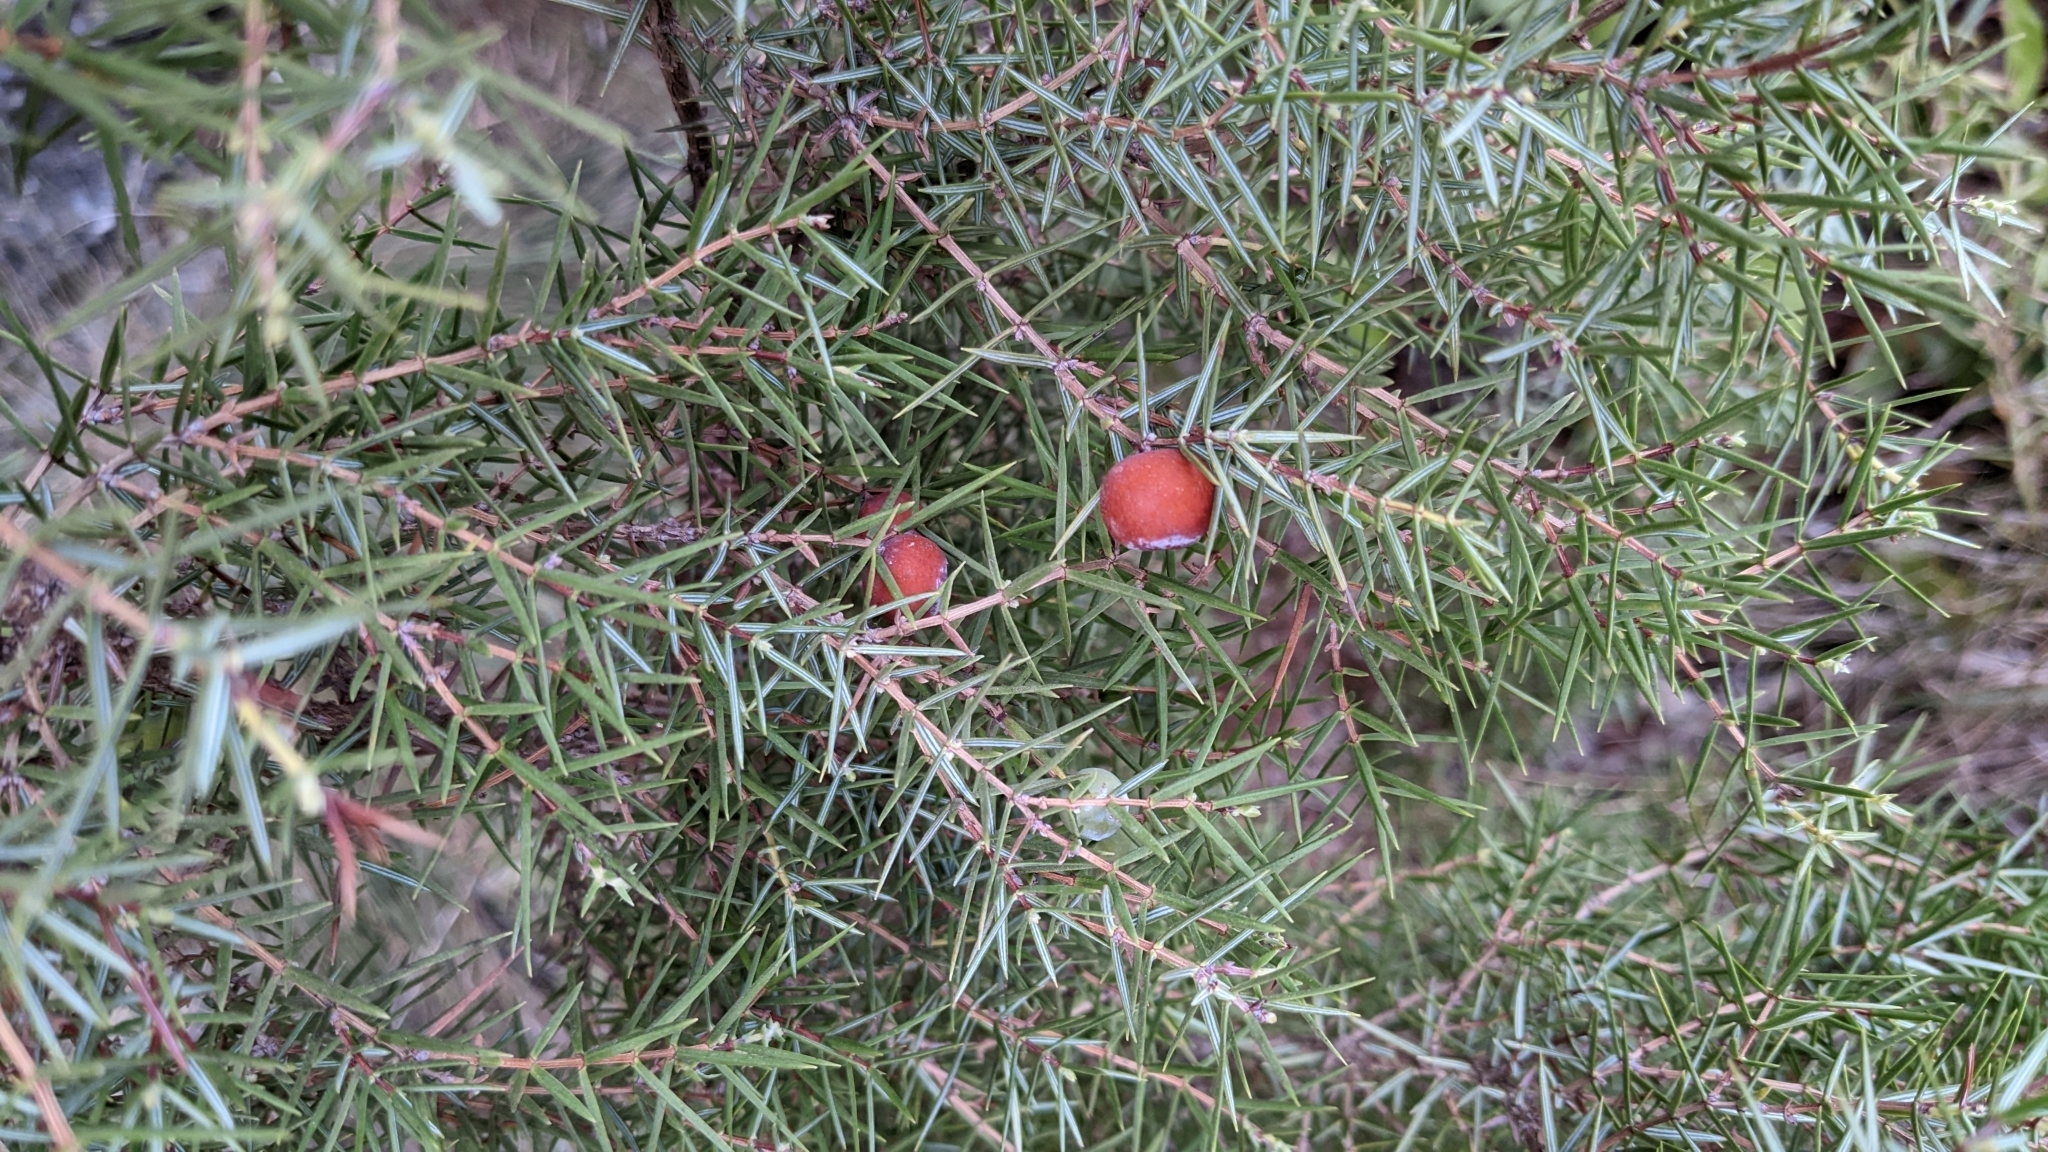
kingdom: Plantae
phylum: Tracheophyta
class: Pinopsida
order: Pinales
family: Cupressaceae
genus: Juniperus
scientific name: Juniperus oxycedrus
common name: Prickly juniper
